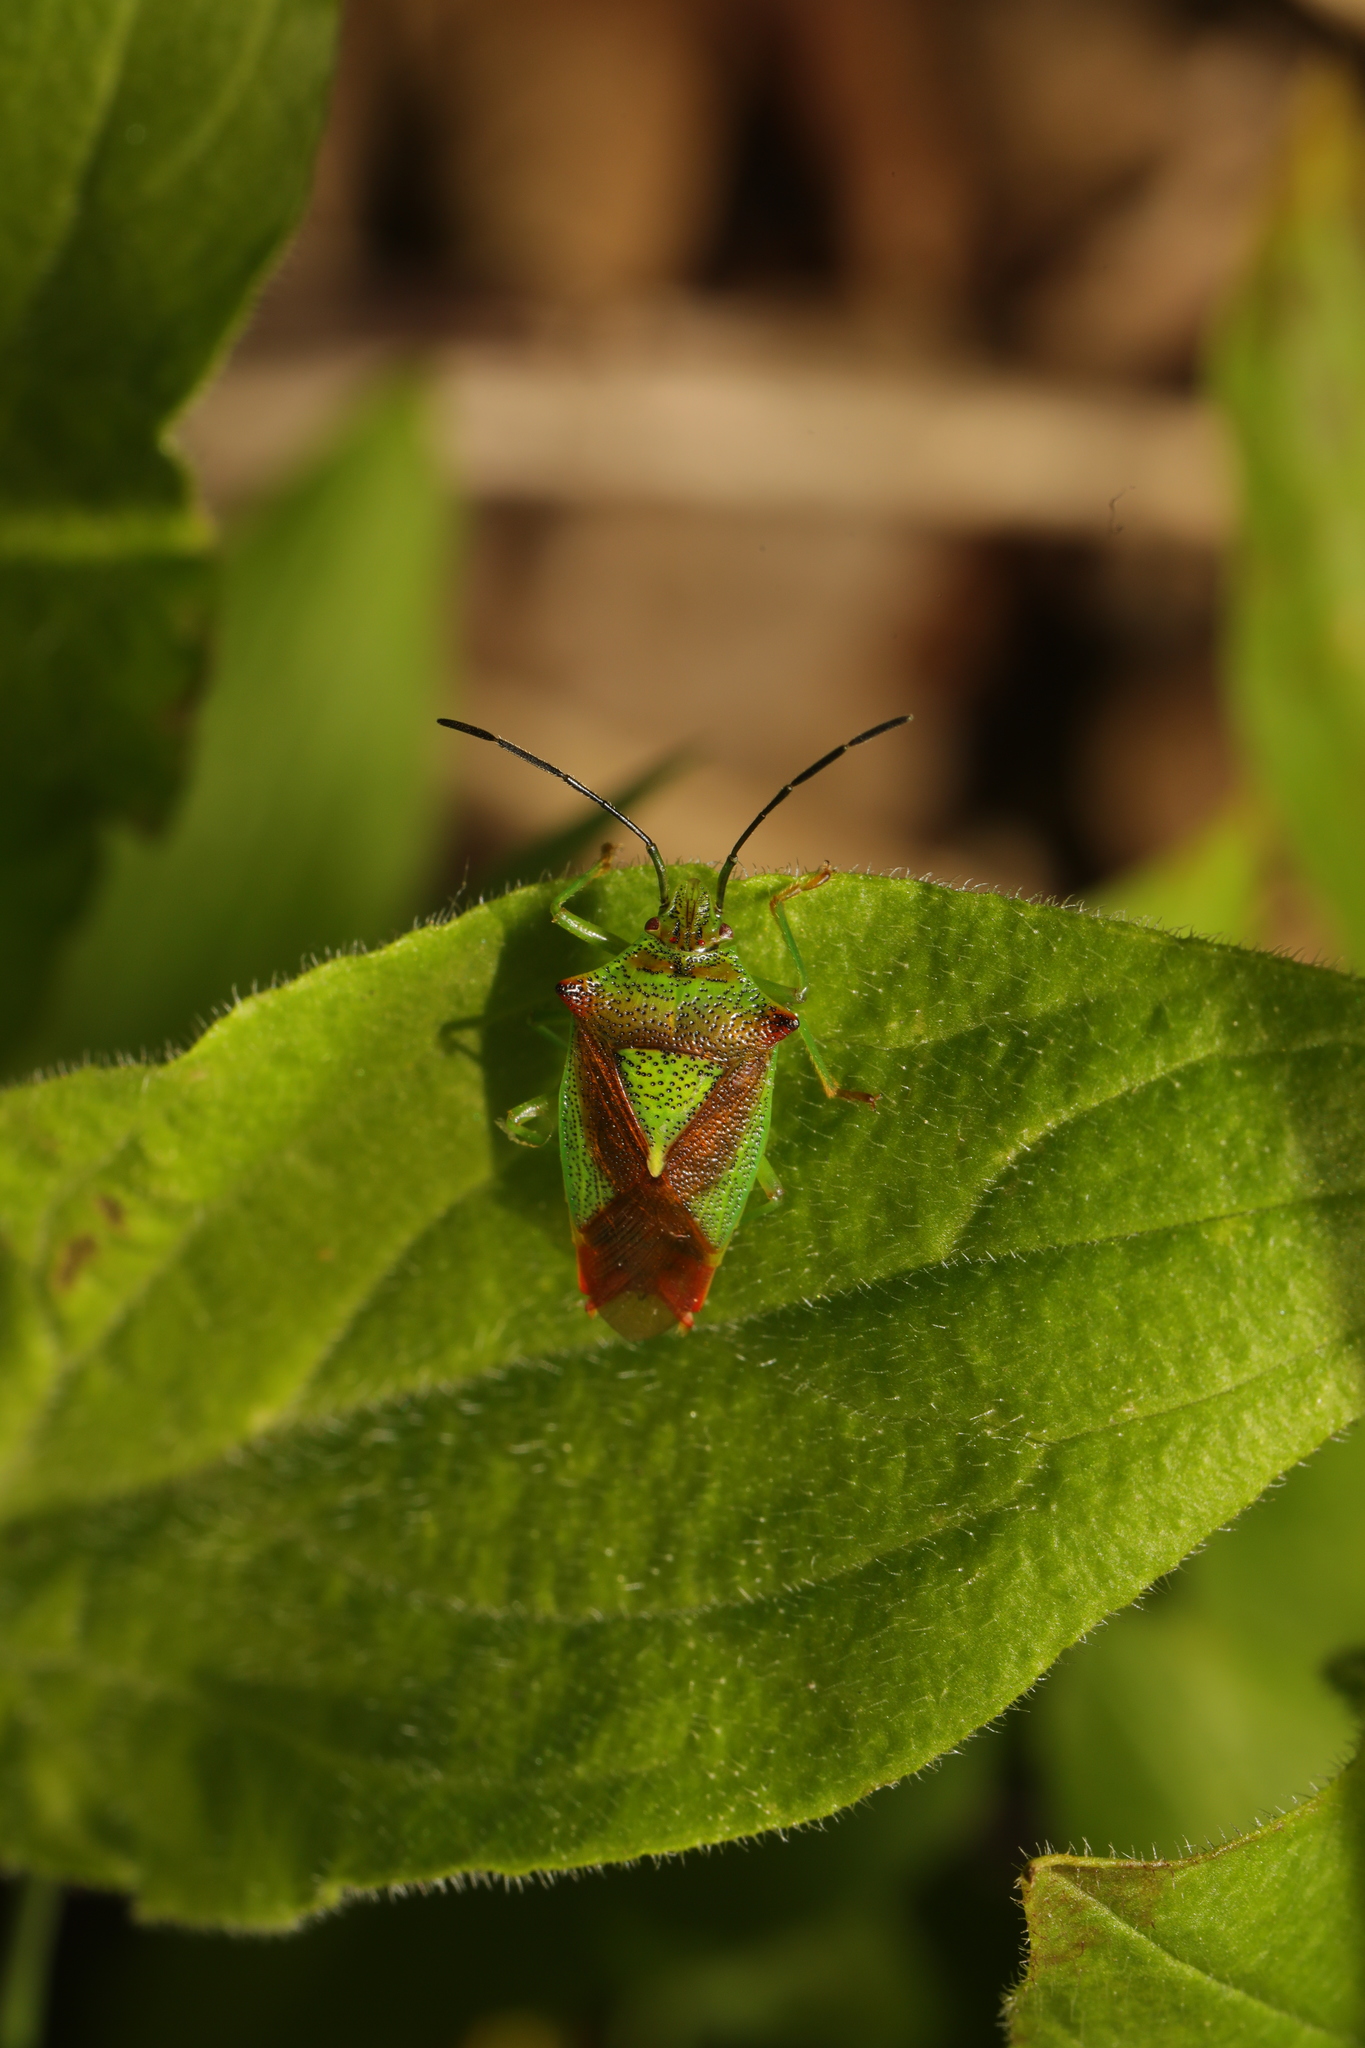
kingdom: Animalia
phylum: Arthropoda
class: Insecta
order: Hemiptera
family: Acanthosomatidae
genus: Acanthosoma
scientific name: Acanthosoma haemorrhoidale
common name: Hawthorn shieldbug
